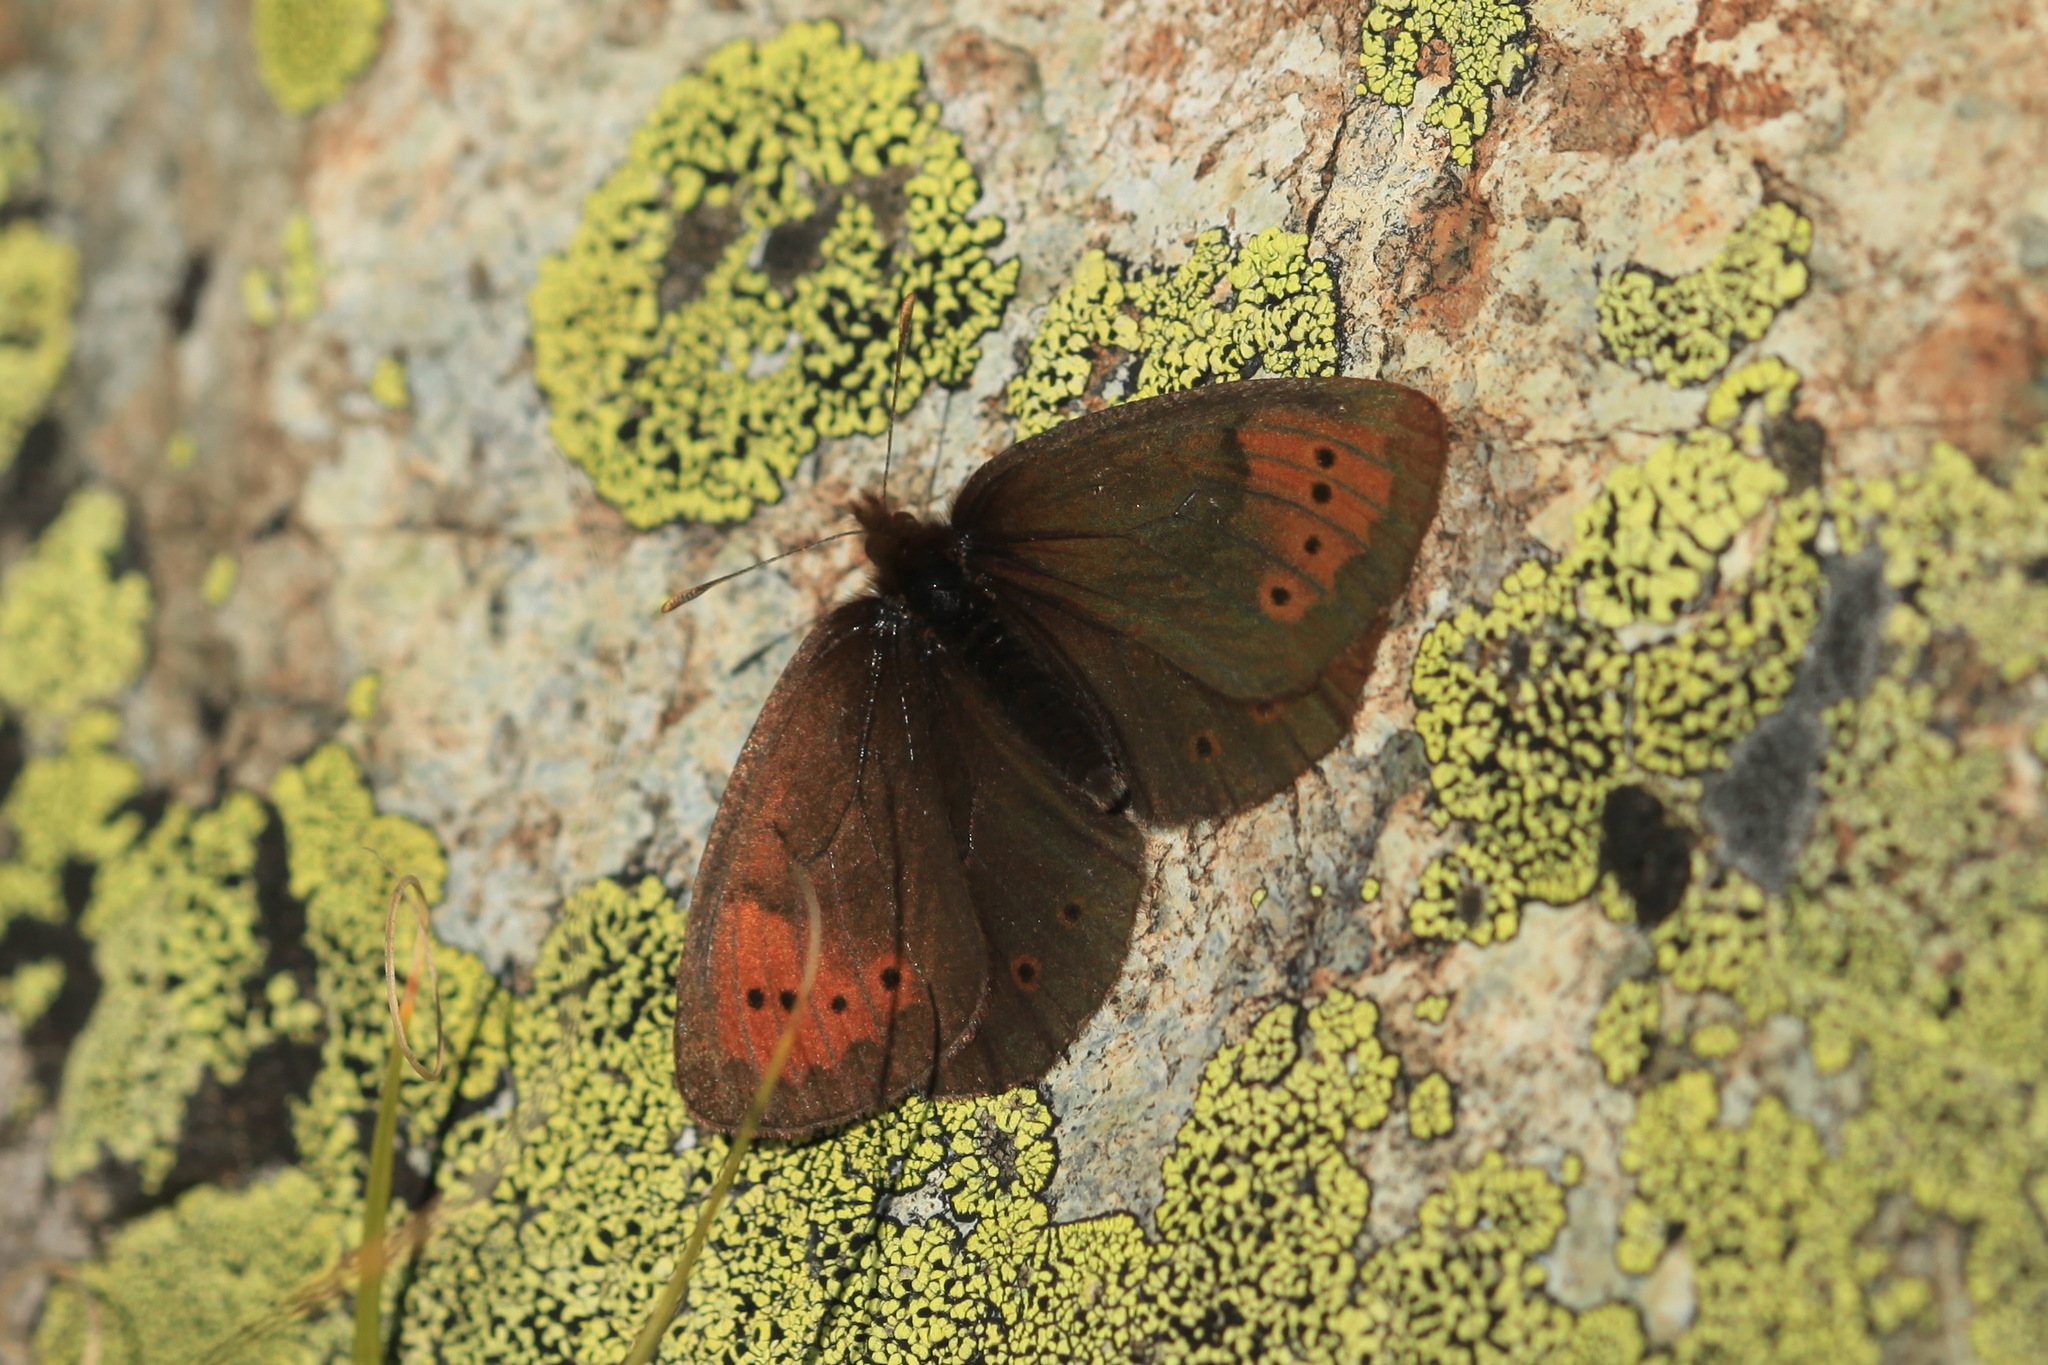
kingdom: Animalia
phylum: Arthropoda
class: Insecta
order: Lepidoptera
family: Nymphalidae
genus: Erebia
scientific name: Erebia pandrose
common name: Dewy ringlet
